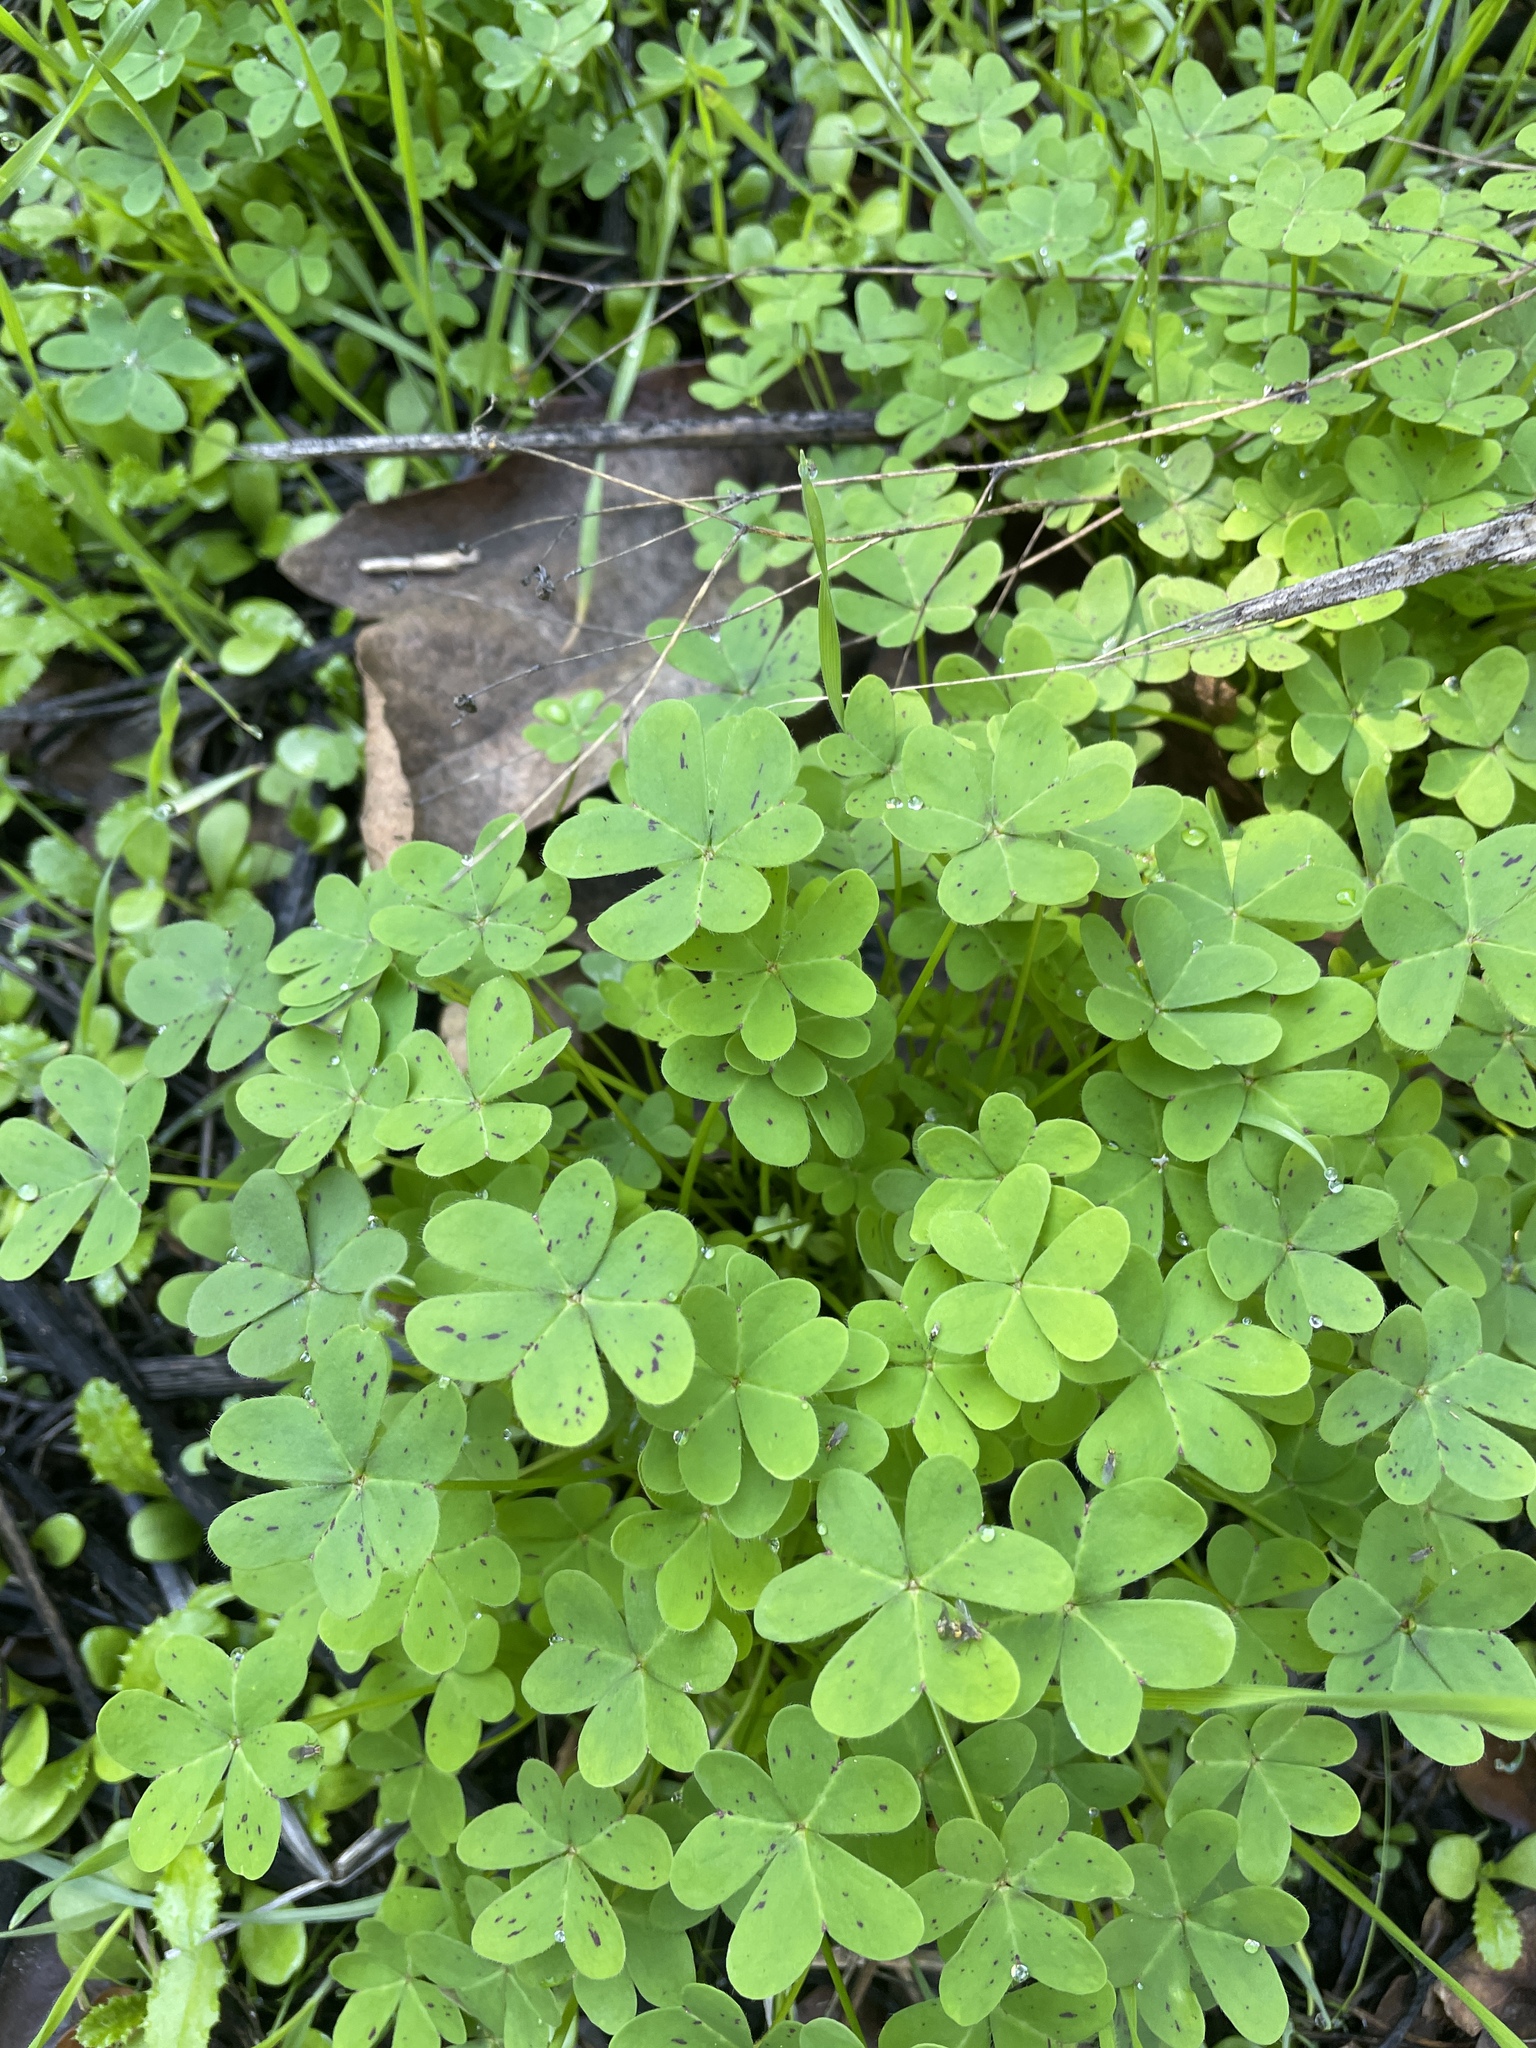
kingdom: Plantae
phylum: Tracheophyta
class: Magnoliopsida
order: Oxalidales
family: Oxalidaceae
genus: Oxalis
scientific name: Oxalis pes-caprae
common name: Bermuda-buttercup
